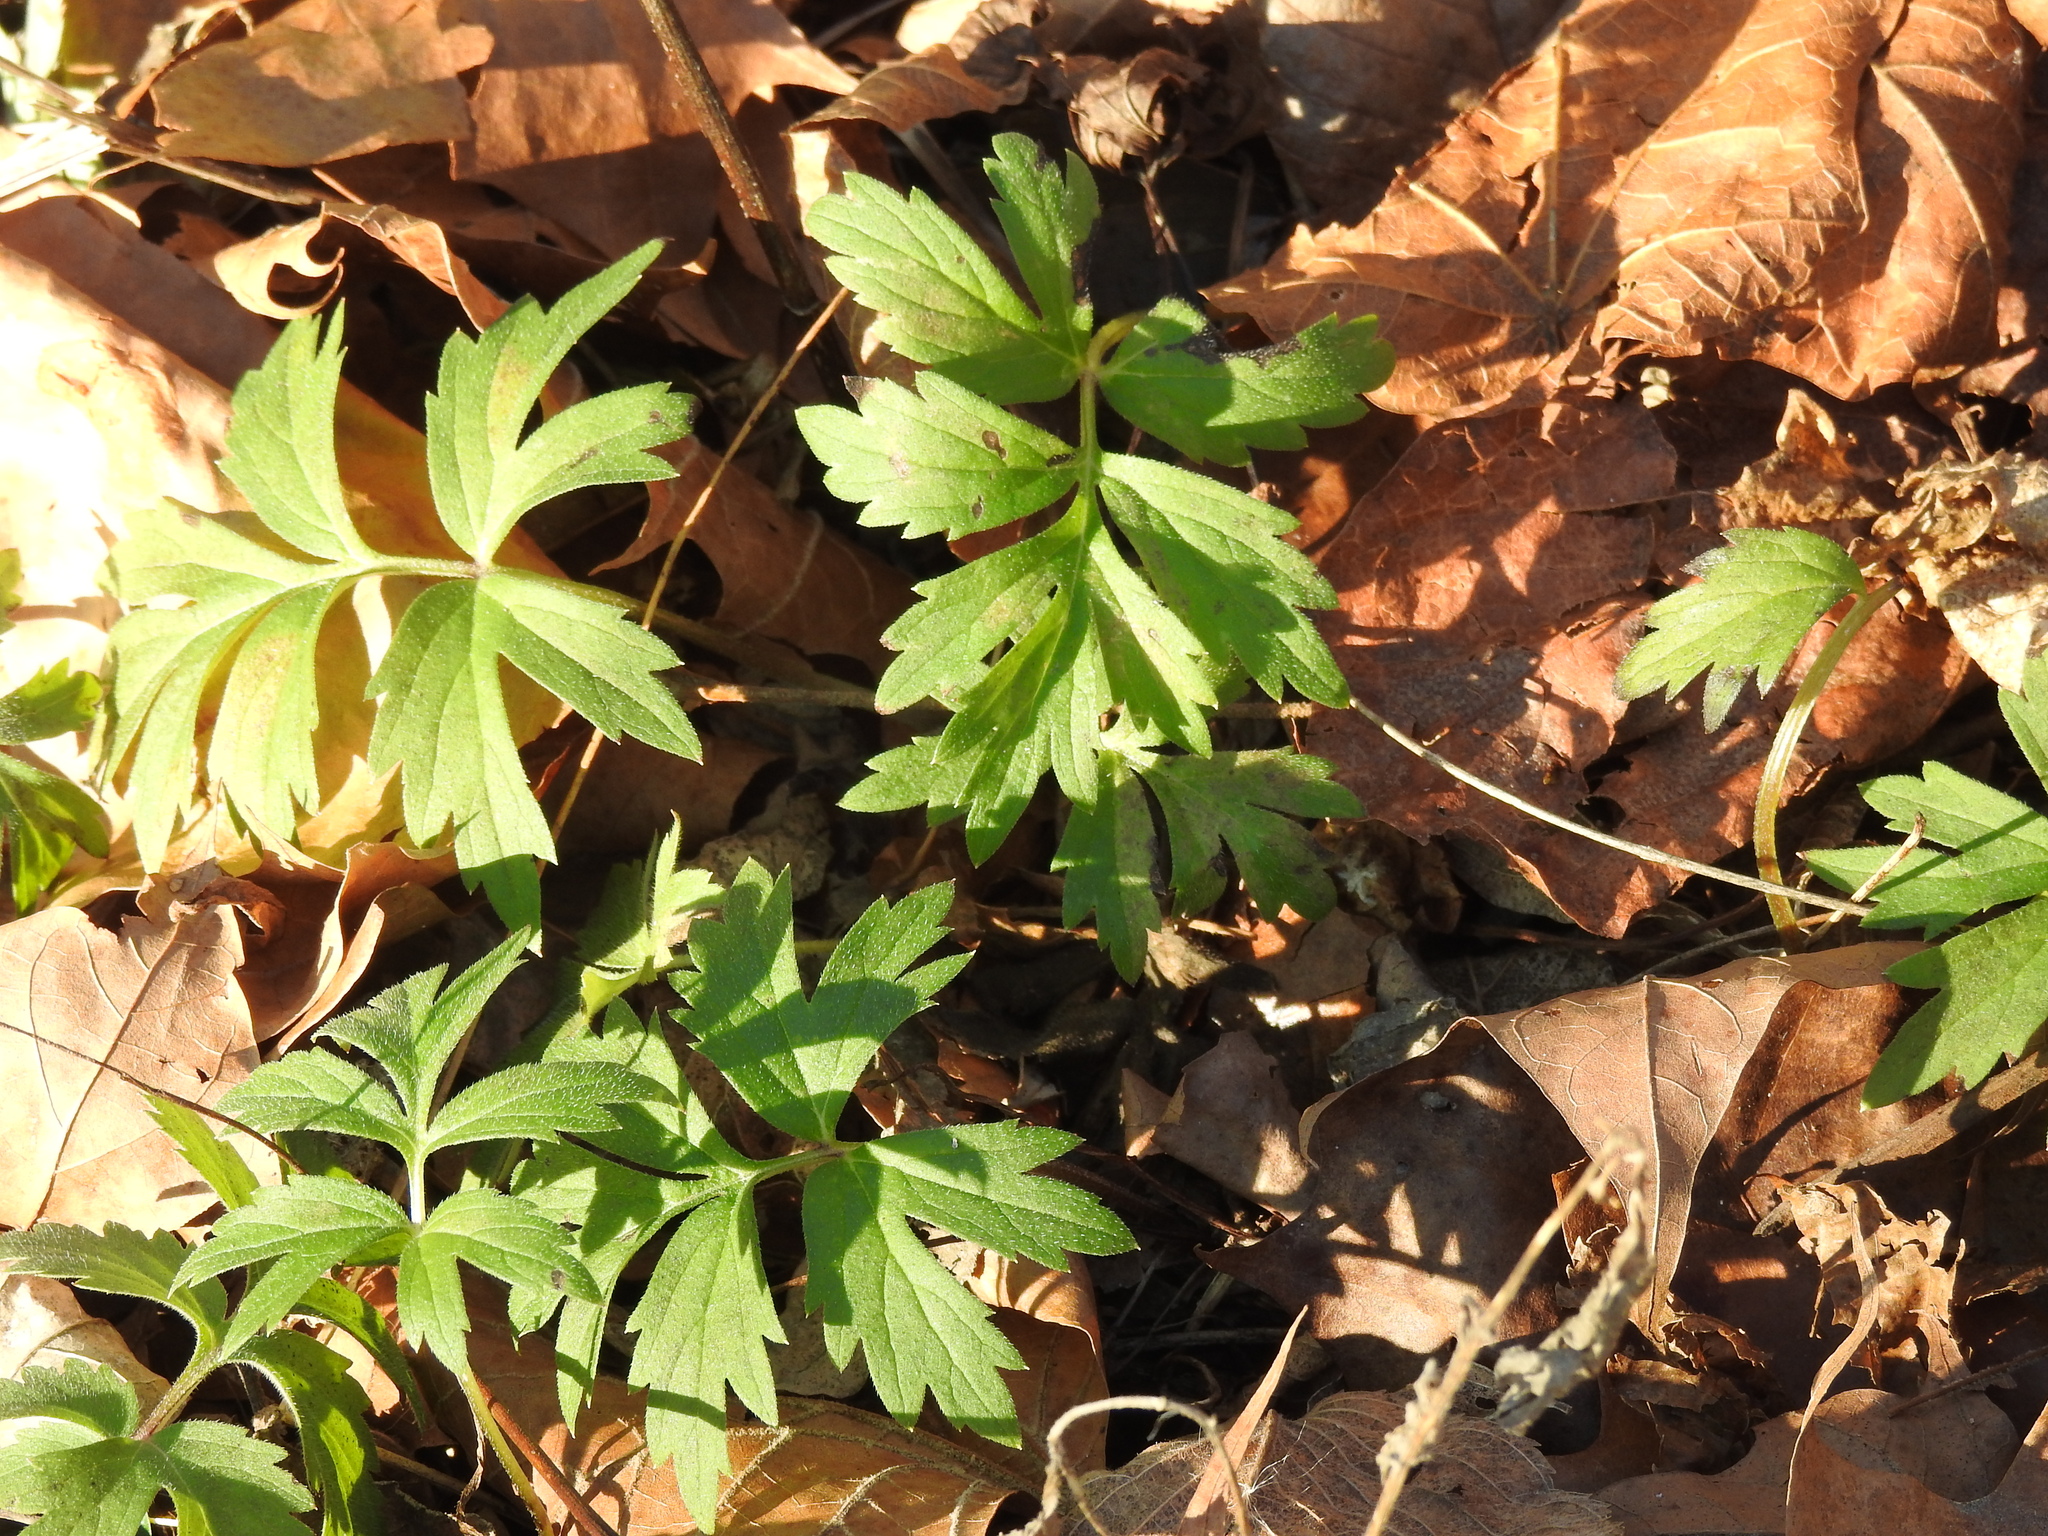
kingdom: Plantae
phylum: Tracheophyta
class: Magnoliopsida
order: Boraginales
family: Hydrophyllaceae
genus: Hydrophyllum
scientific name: Hydrophyllum virginianum
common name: Virginia waterleaf
